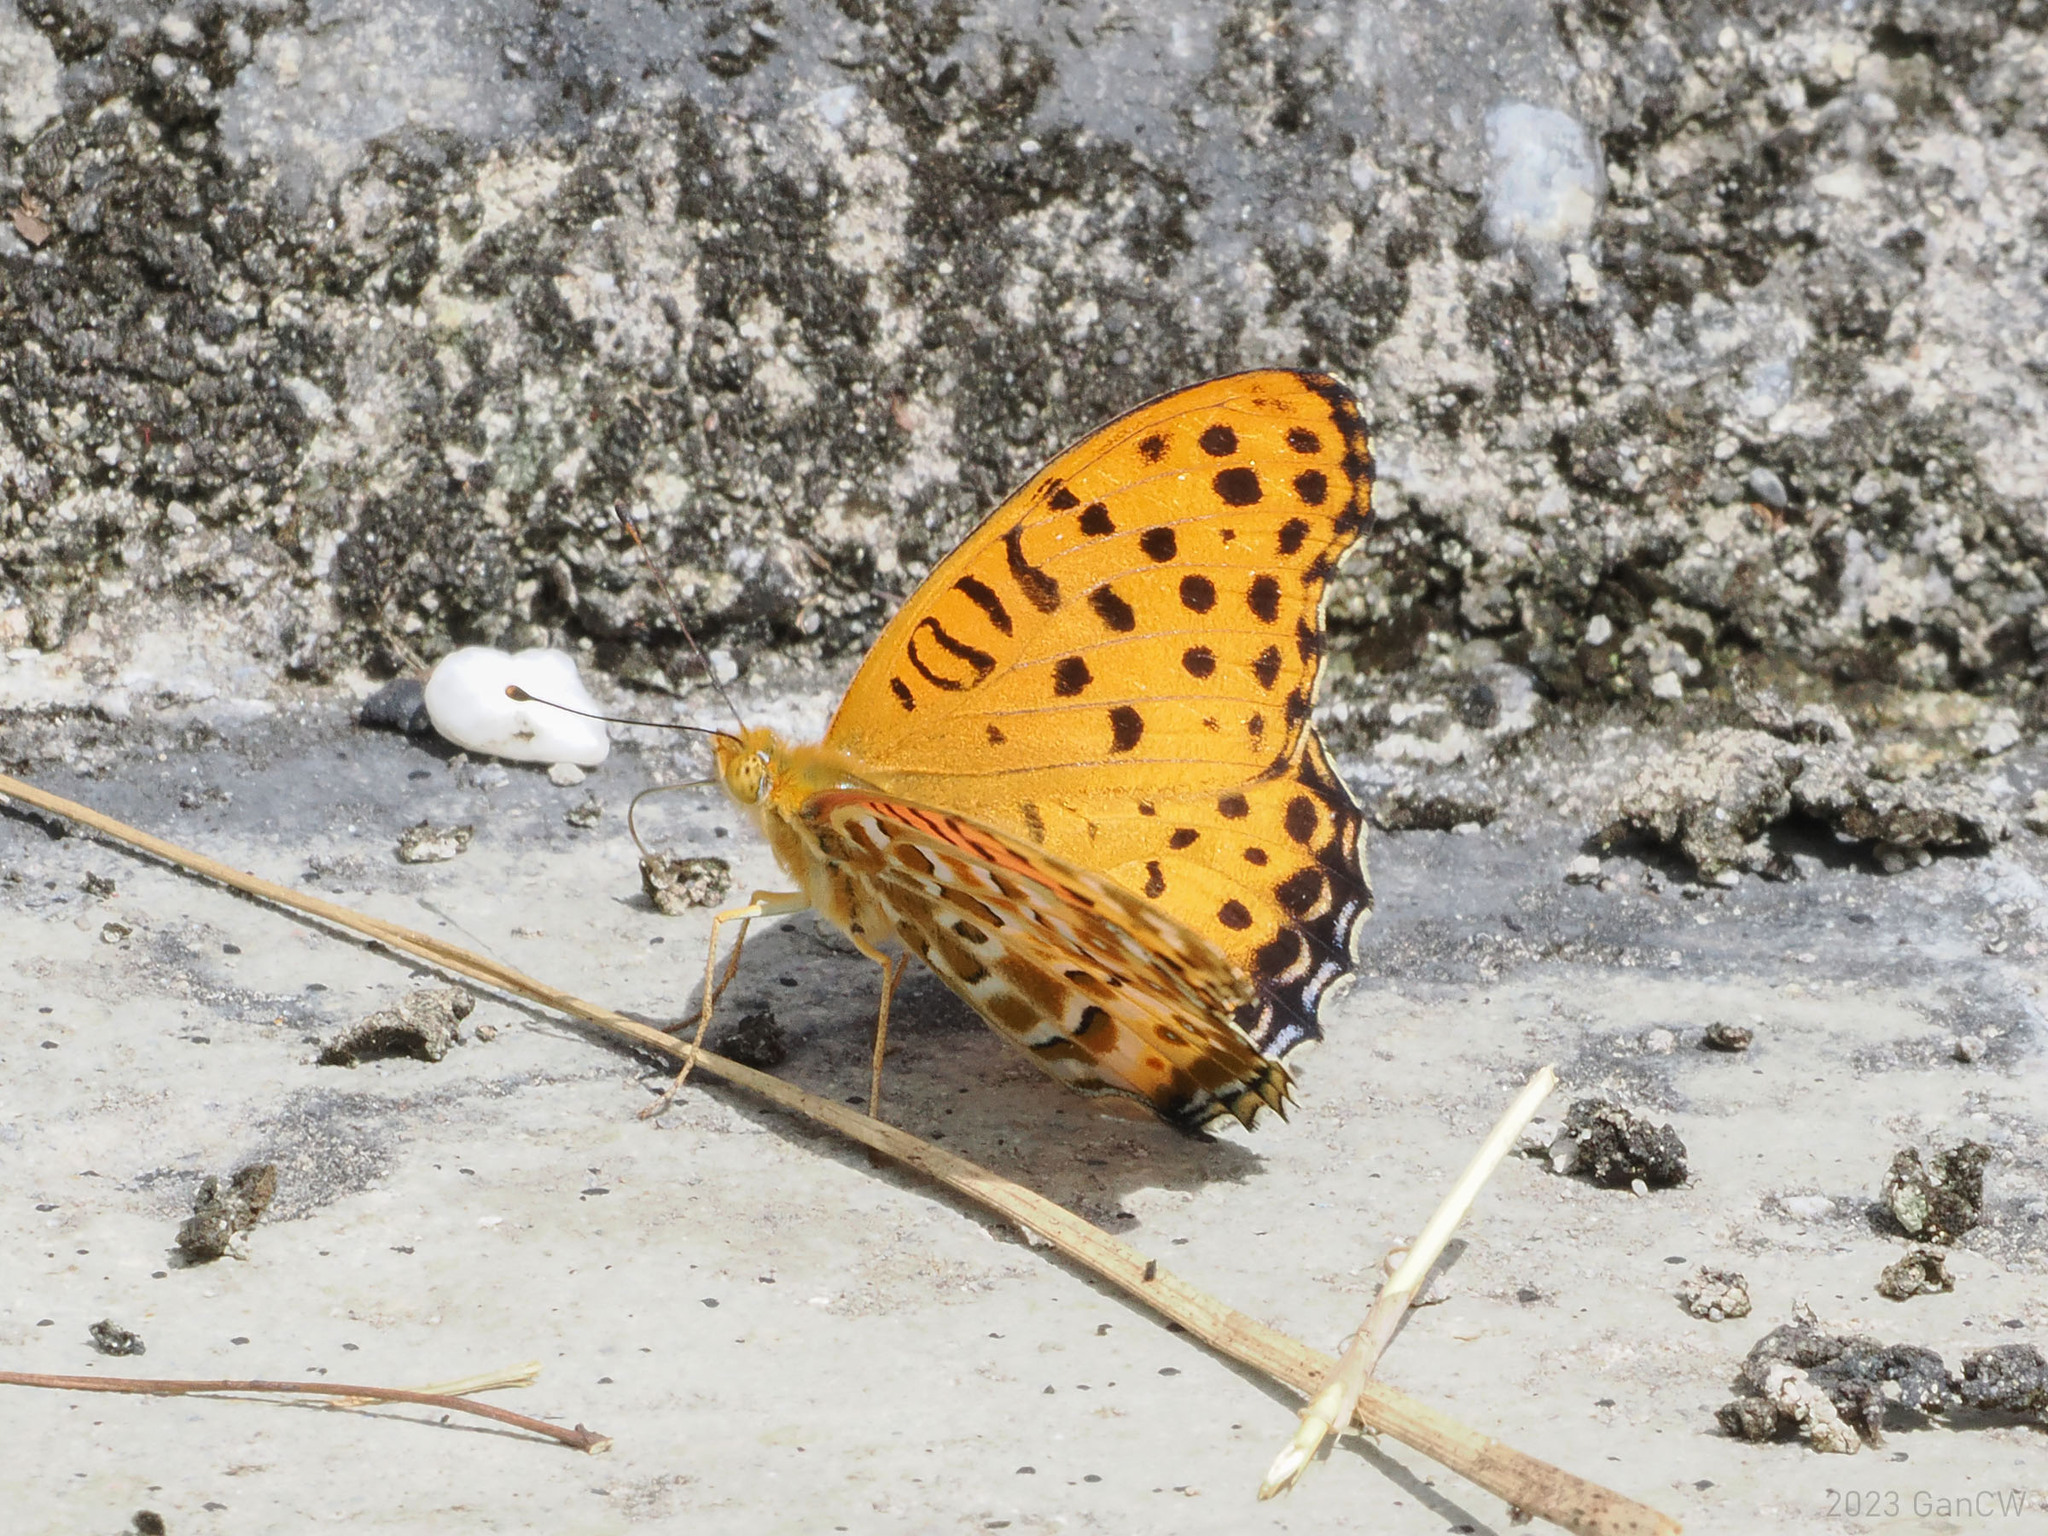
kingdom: Animalia
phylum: Arthropoda
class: Insecta
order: Lepidoptera
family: Nymphalidae
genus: Argynnis
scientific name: Argynnis hyperbius
